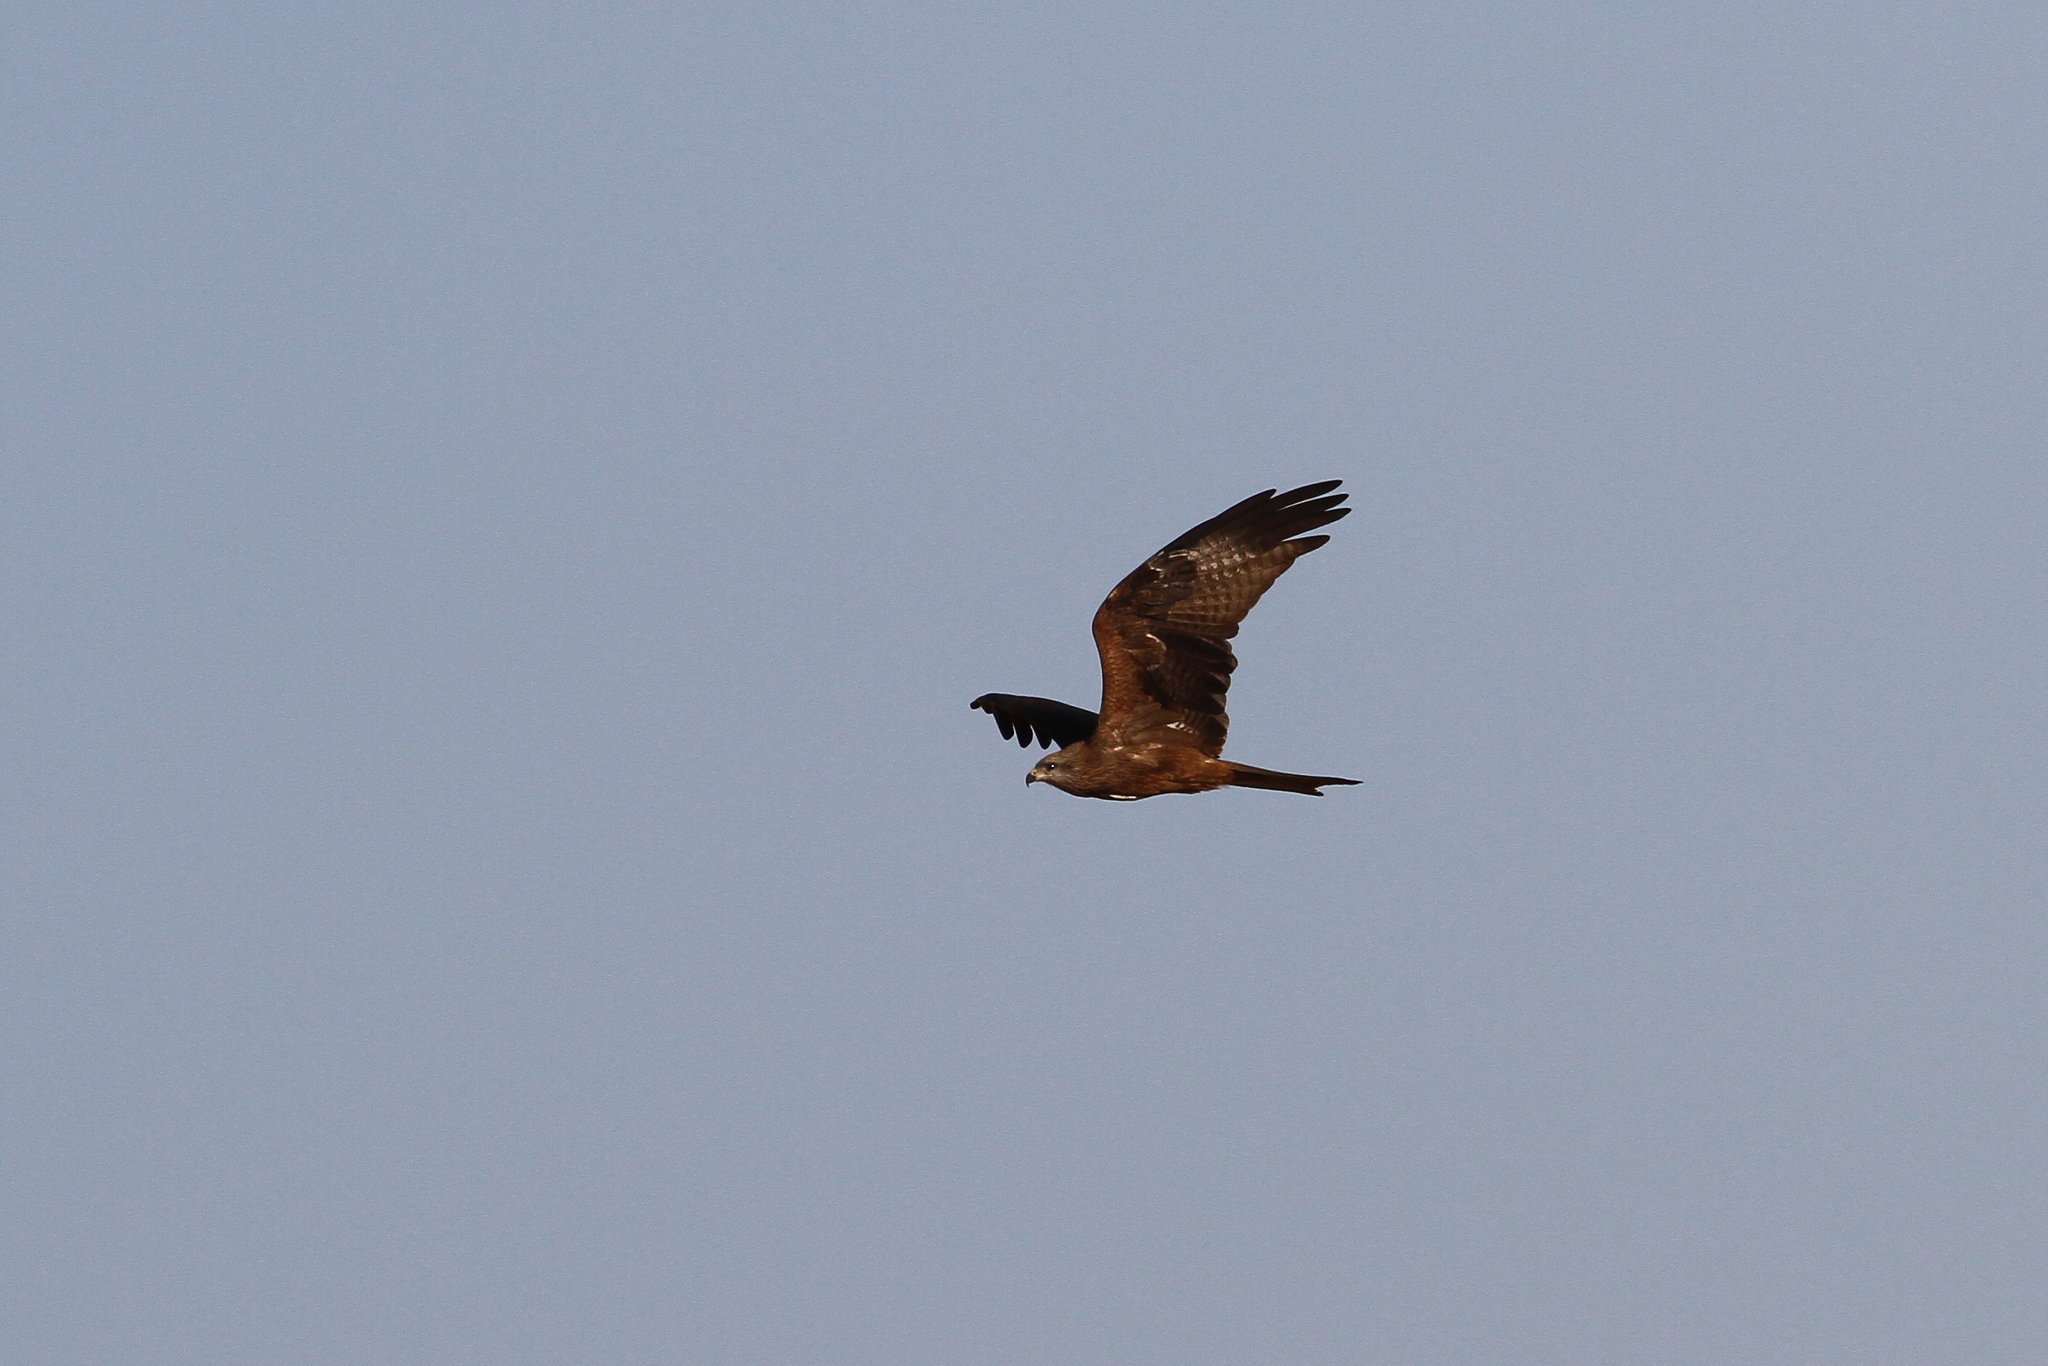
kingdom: Animalia
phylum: Chordata
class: Aves
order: Accipitriformes
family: Accipitridae
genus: Milvus
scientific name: Milvus migrans
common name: Black kite
